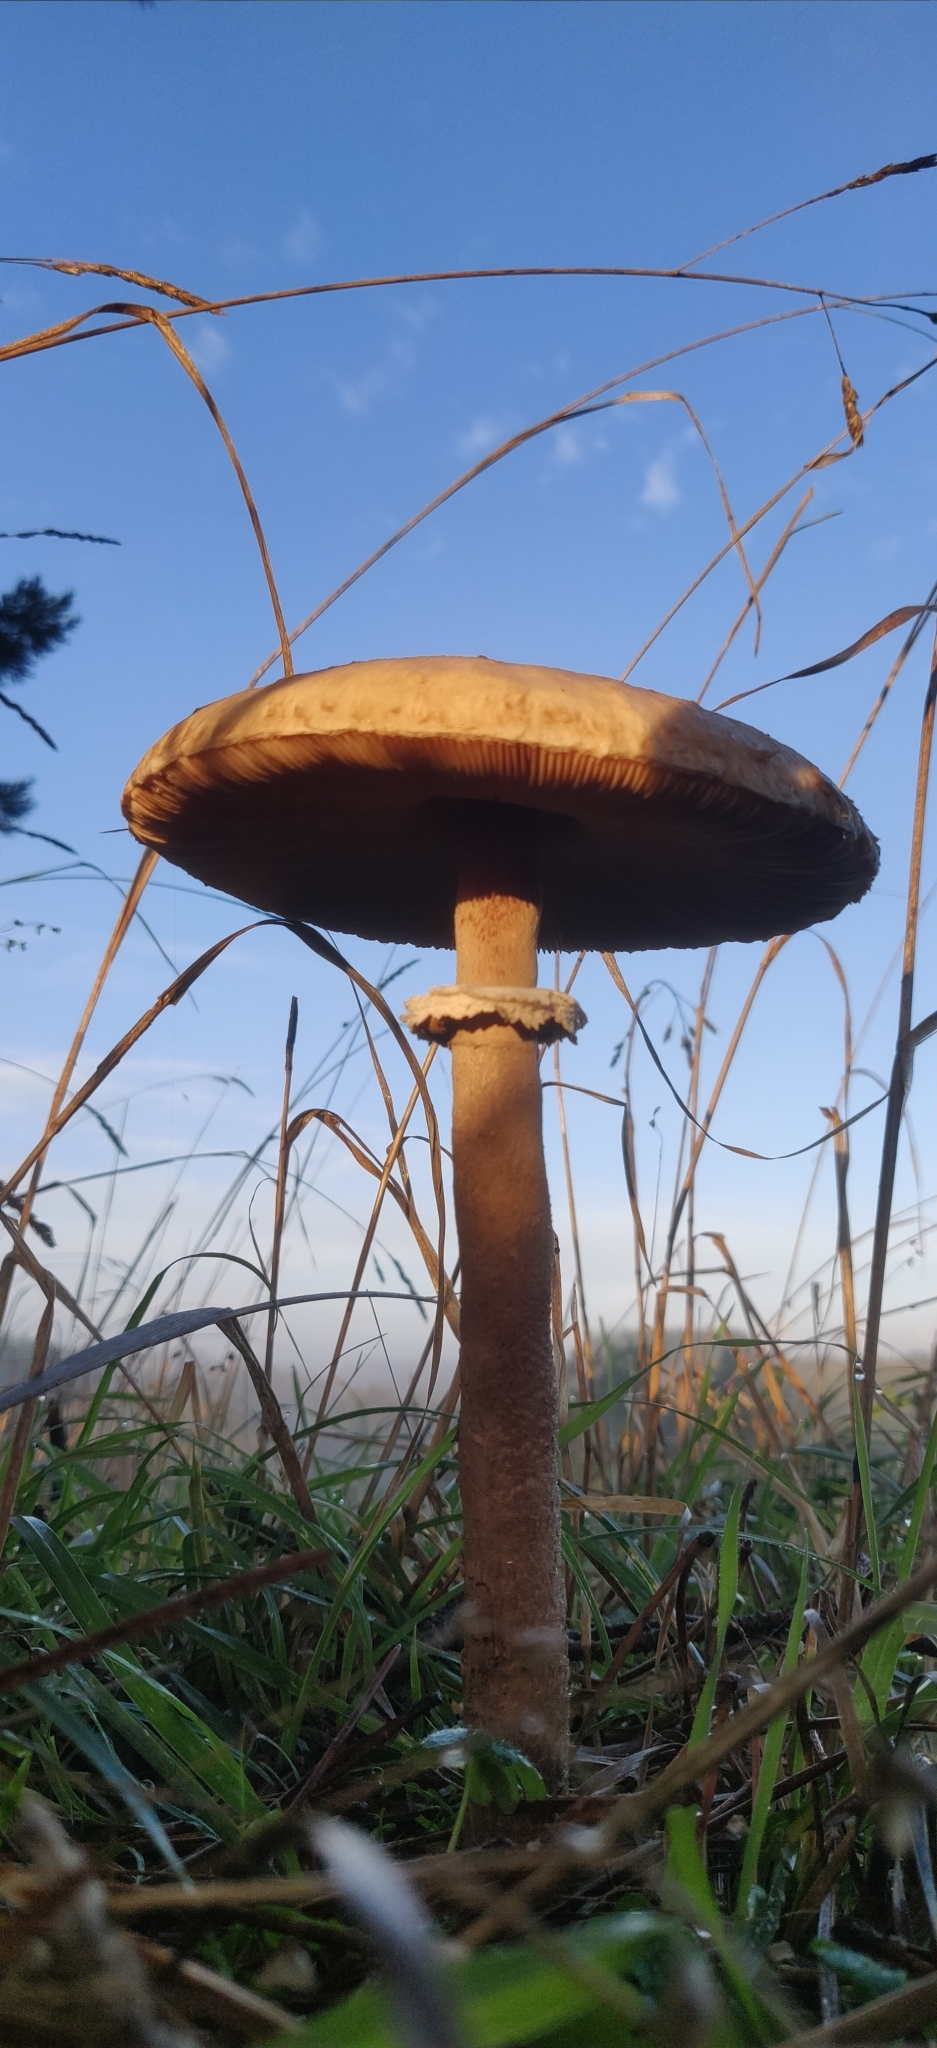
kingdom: Fungi
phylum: Basidiomycota
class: Agaricomycetes
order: Agaricales
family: Agaricaceae
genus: Macrolepiota
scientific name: Macrolepiota procera
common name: Parasol
